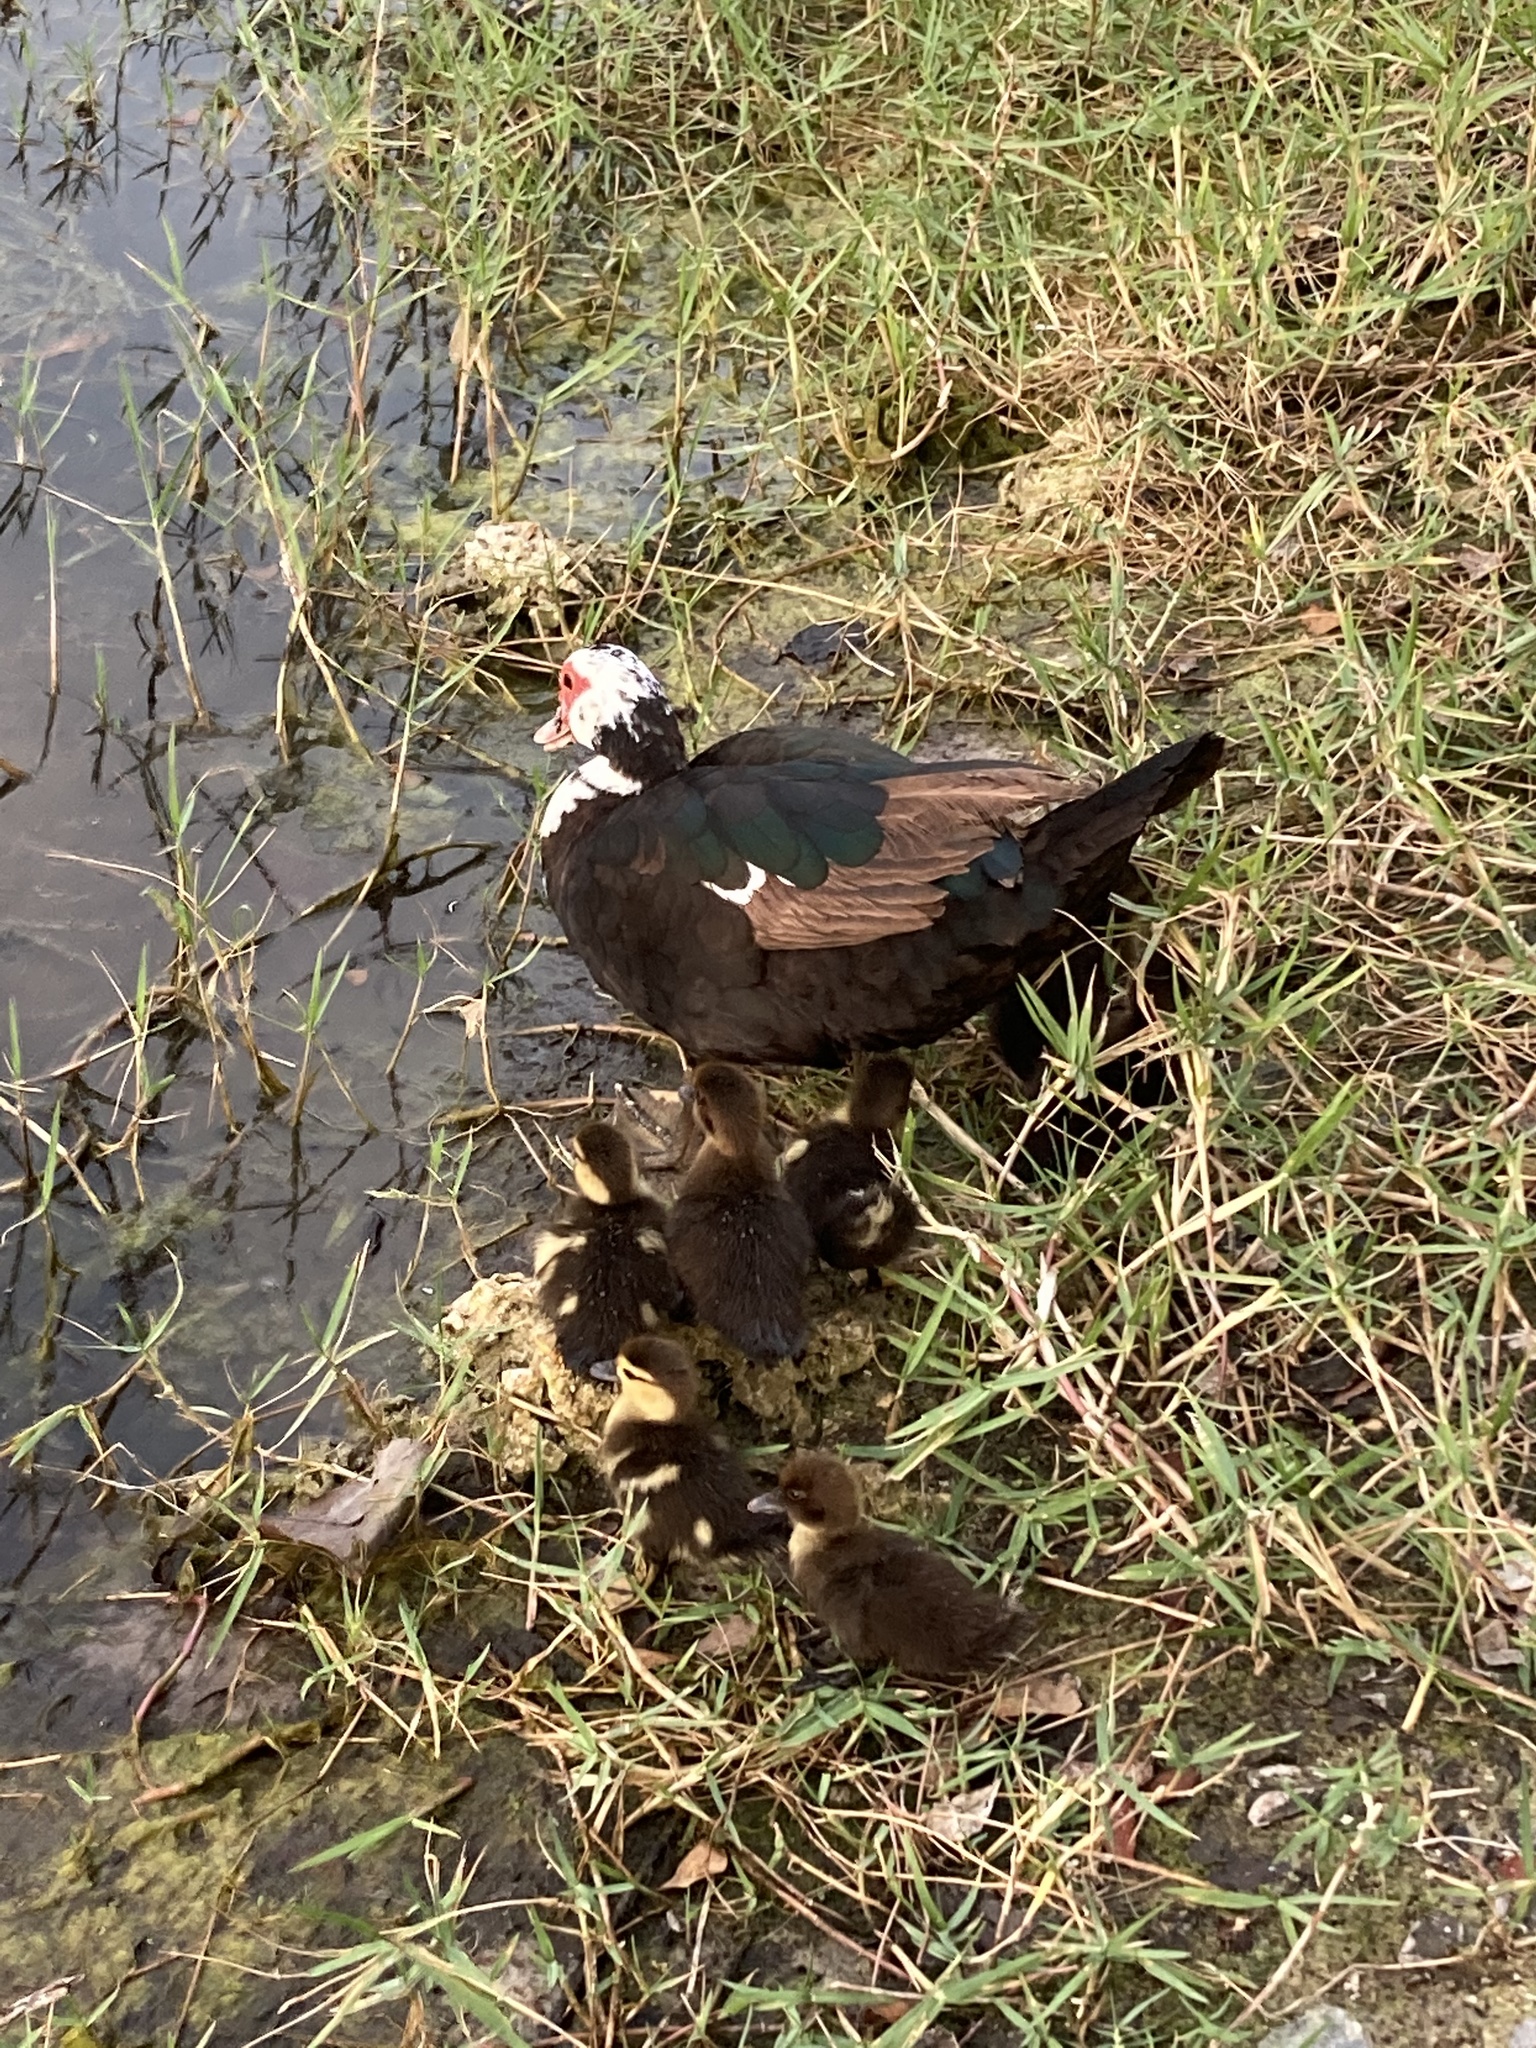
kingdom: Animalia
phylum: Chordata
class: Aves
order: Anseriformes
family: Anatidae
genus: Cairina
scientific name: Cairina moschata
